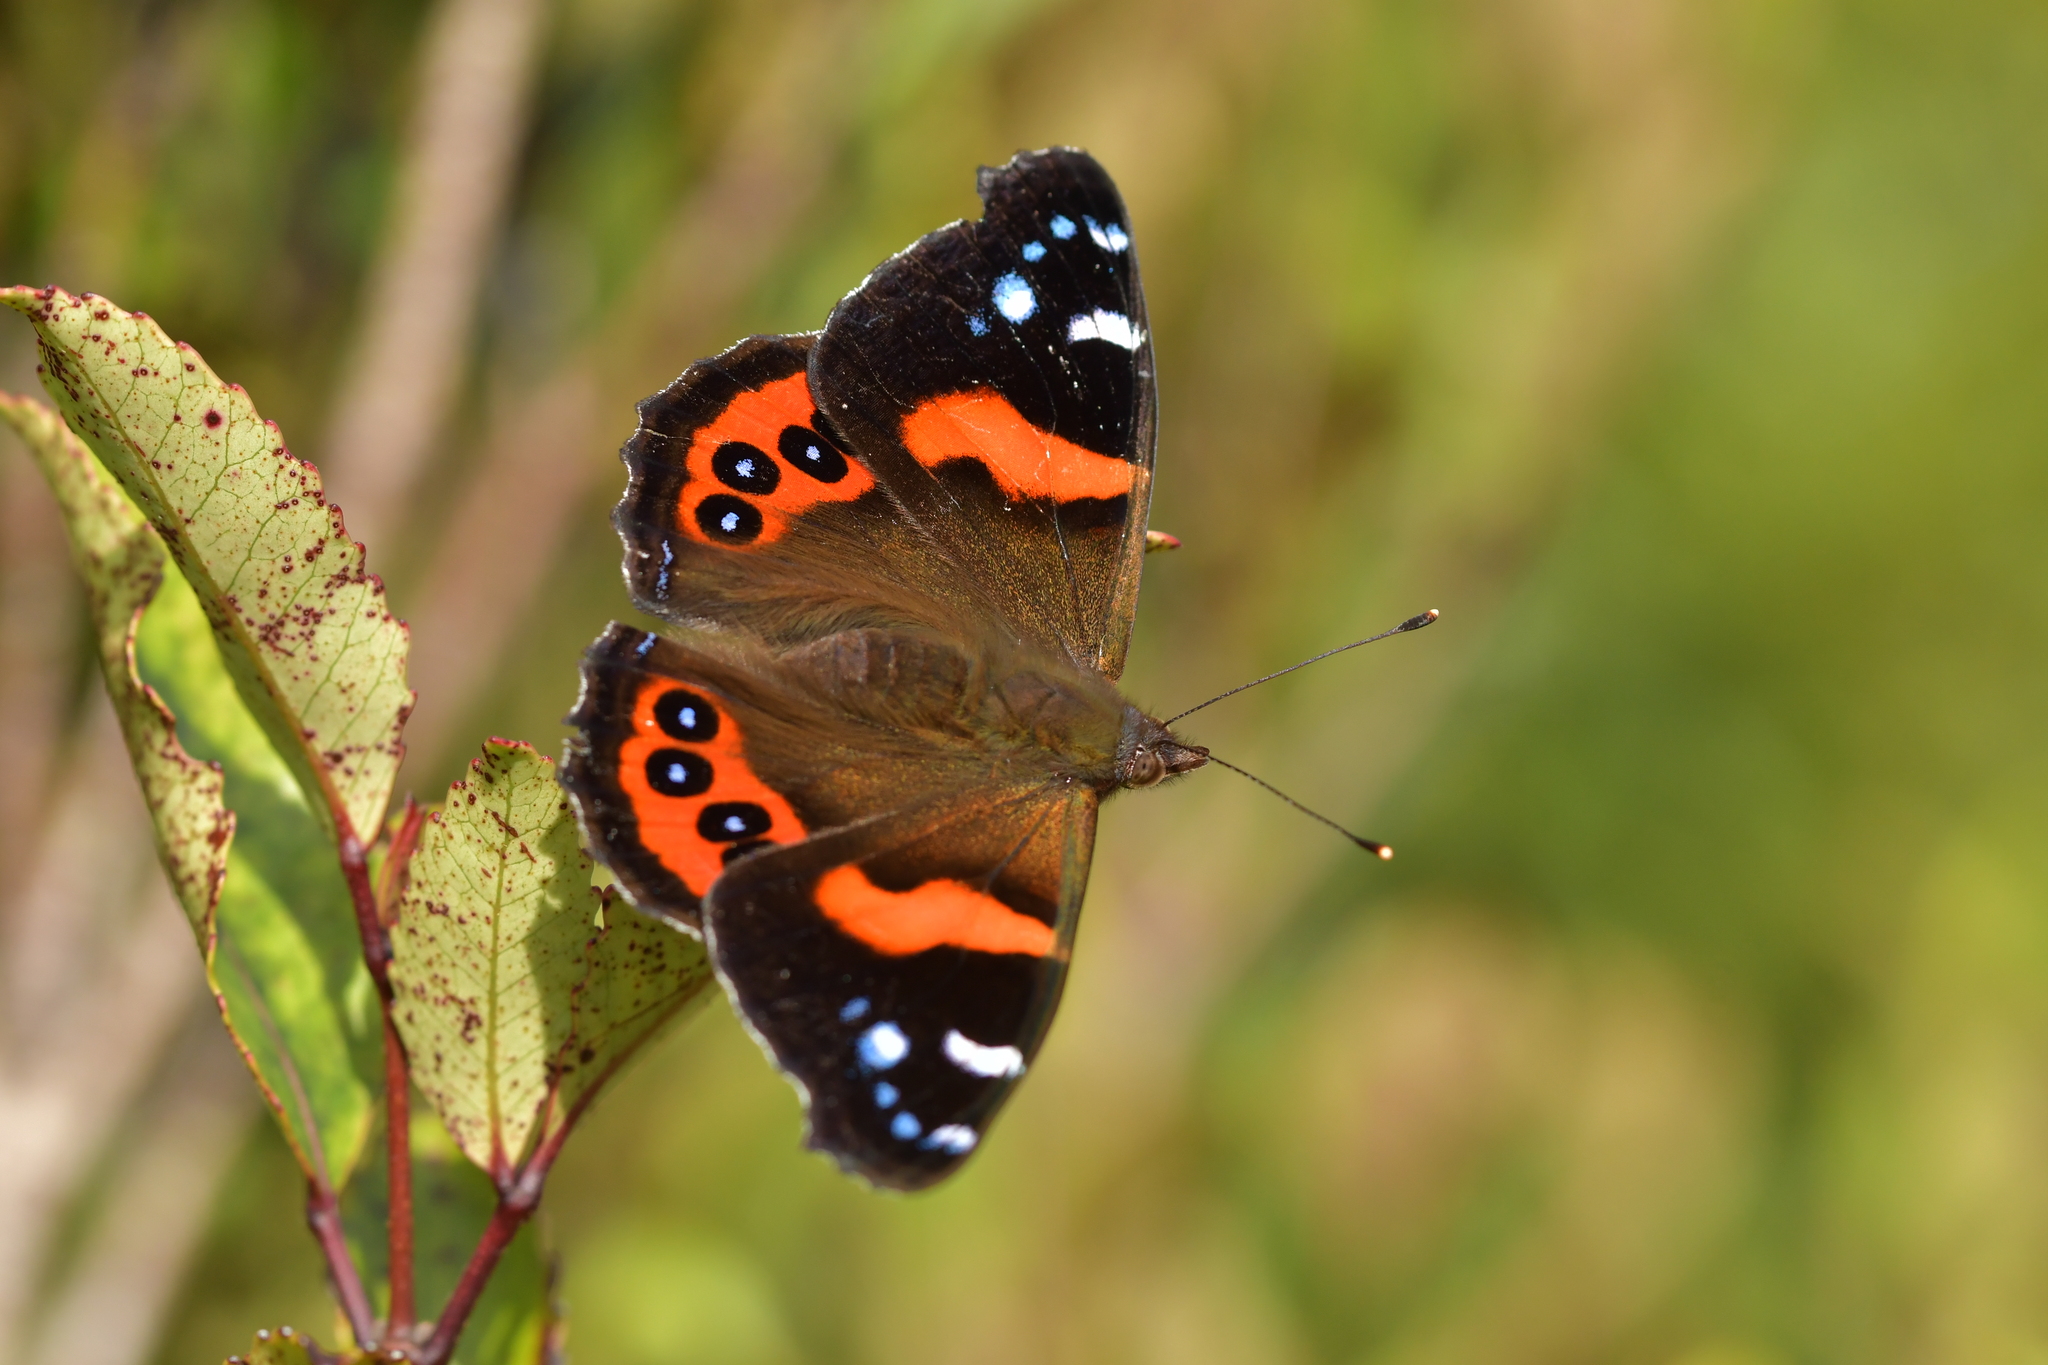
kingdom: Animalia
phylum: Arthropoda
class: Insecta
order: Lepidoptera
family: Nymphalidae
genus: Vanessa
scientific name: Vanessa gonerilla
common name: New zealand red admiral
